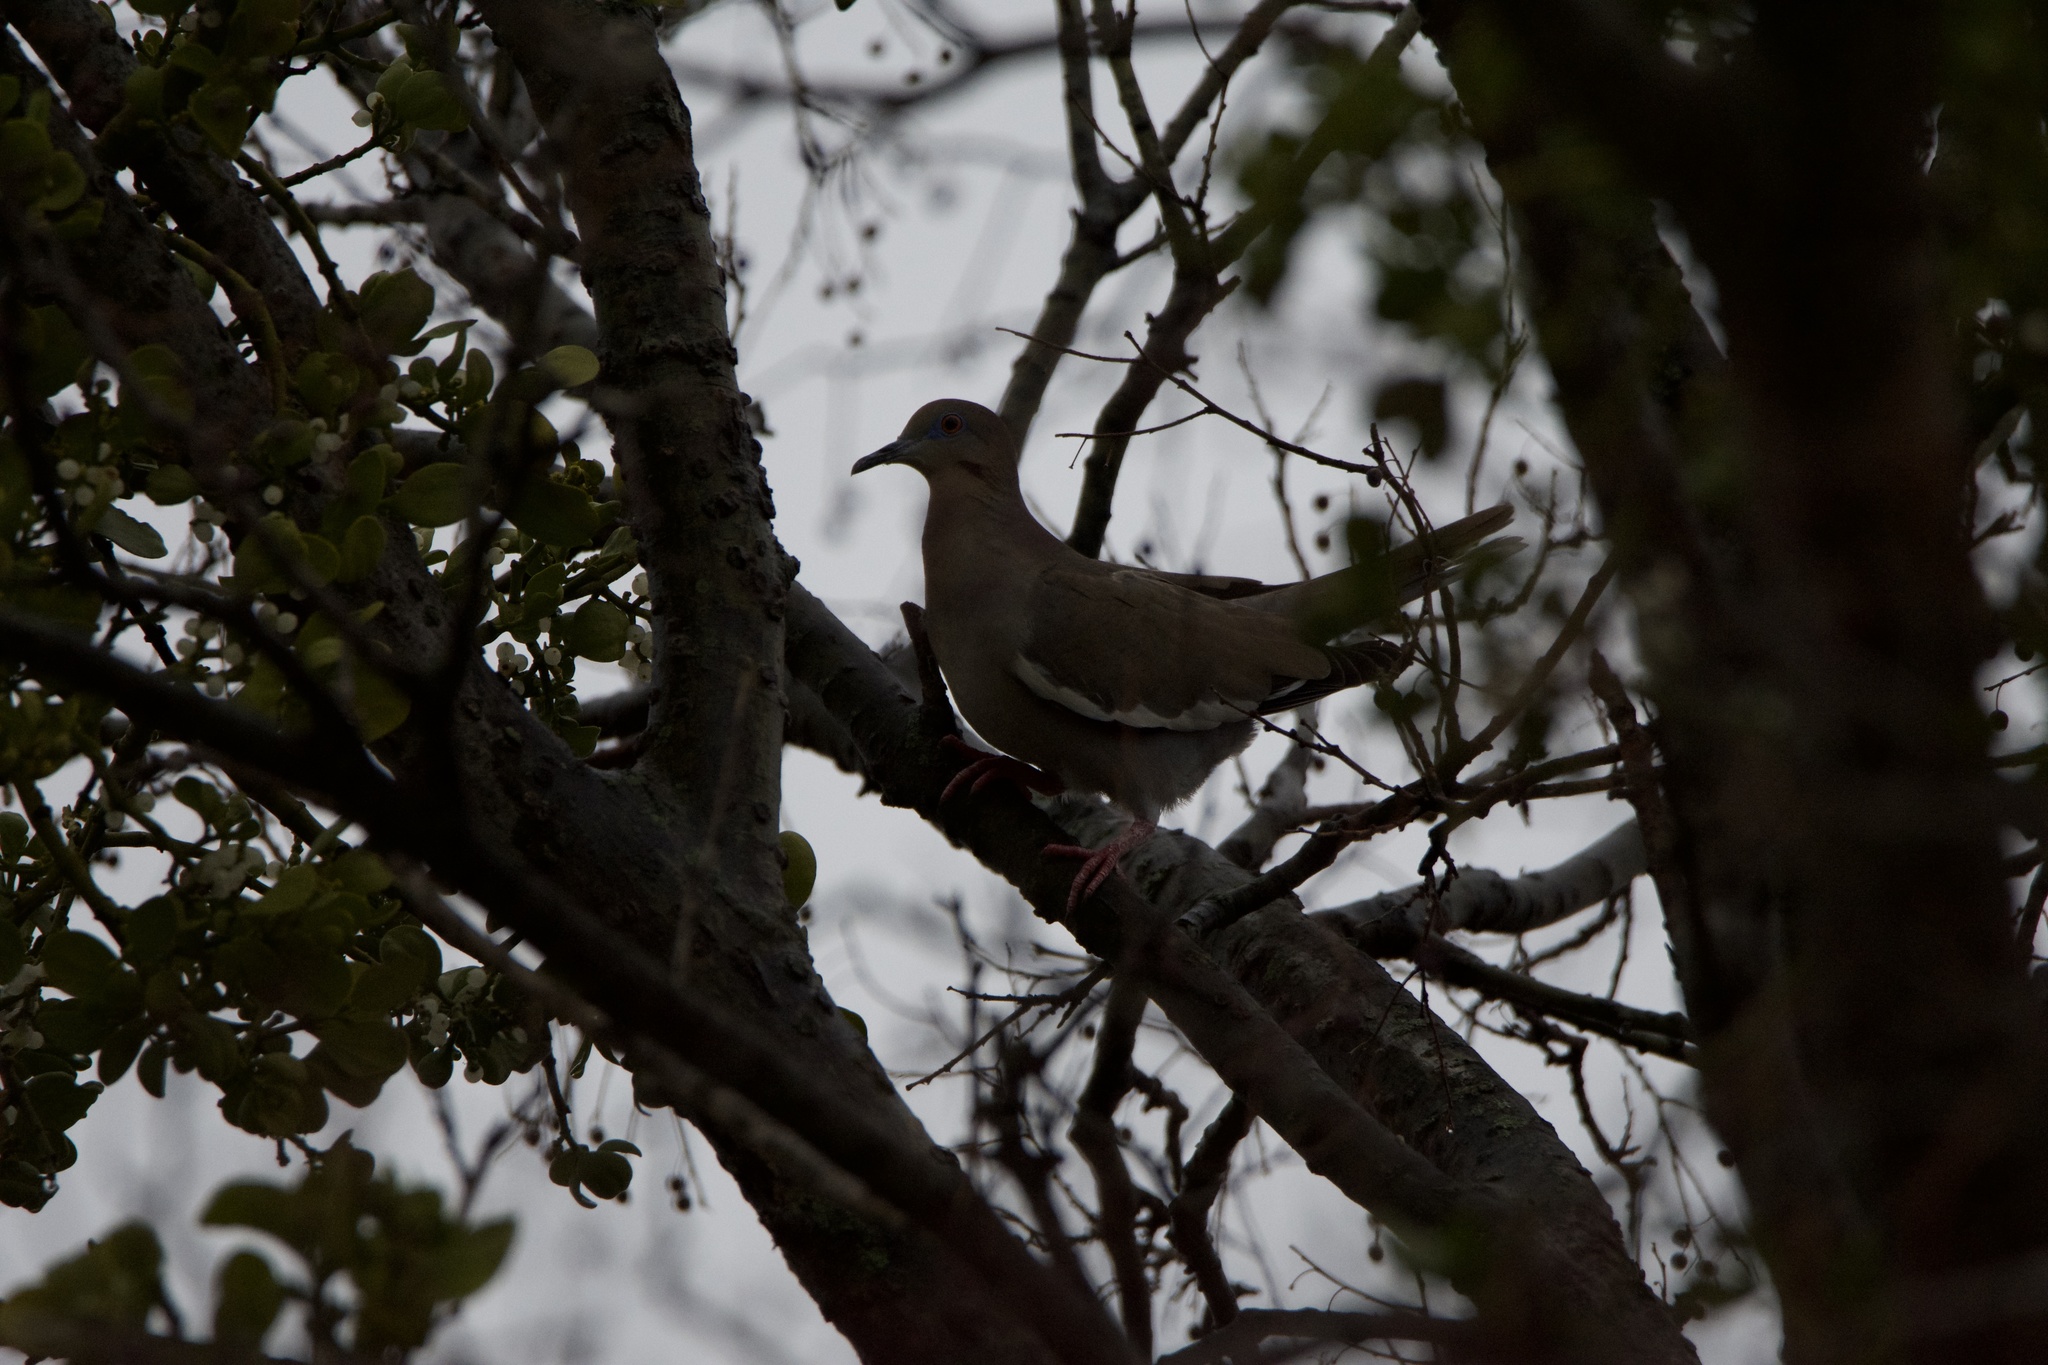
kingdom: Animalia
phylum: Chordata
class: Aves
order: Columbiformes
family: Columbidae
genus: Zenaida
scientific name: Zenaida asiatica
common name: White-winged dove
